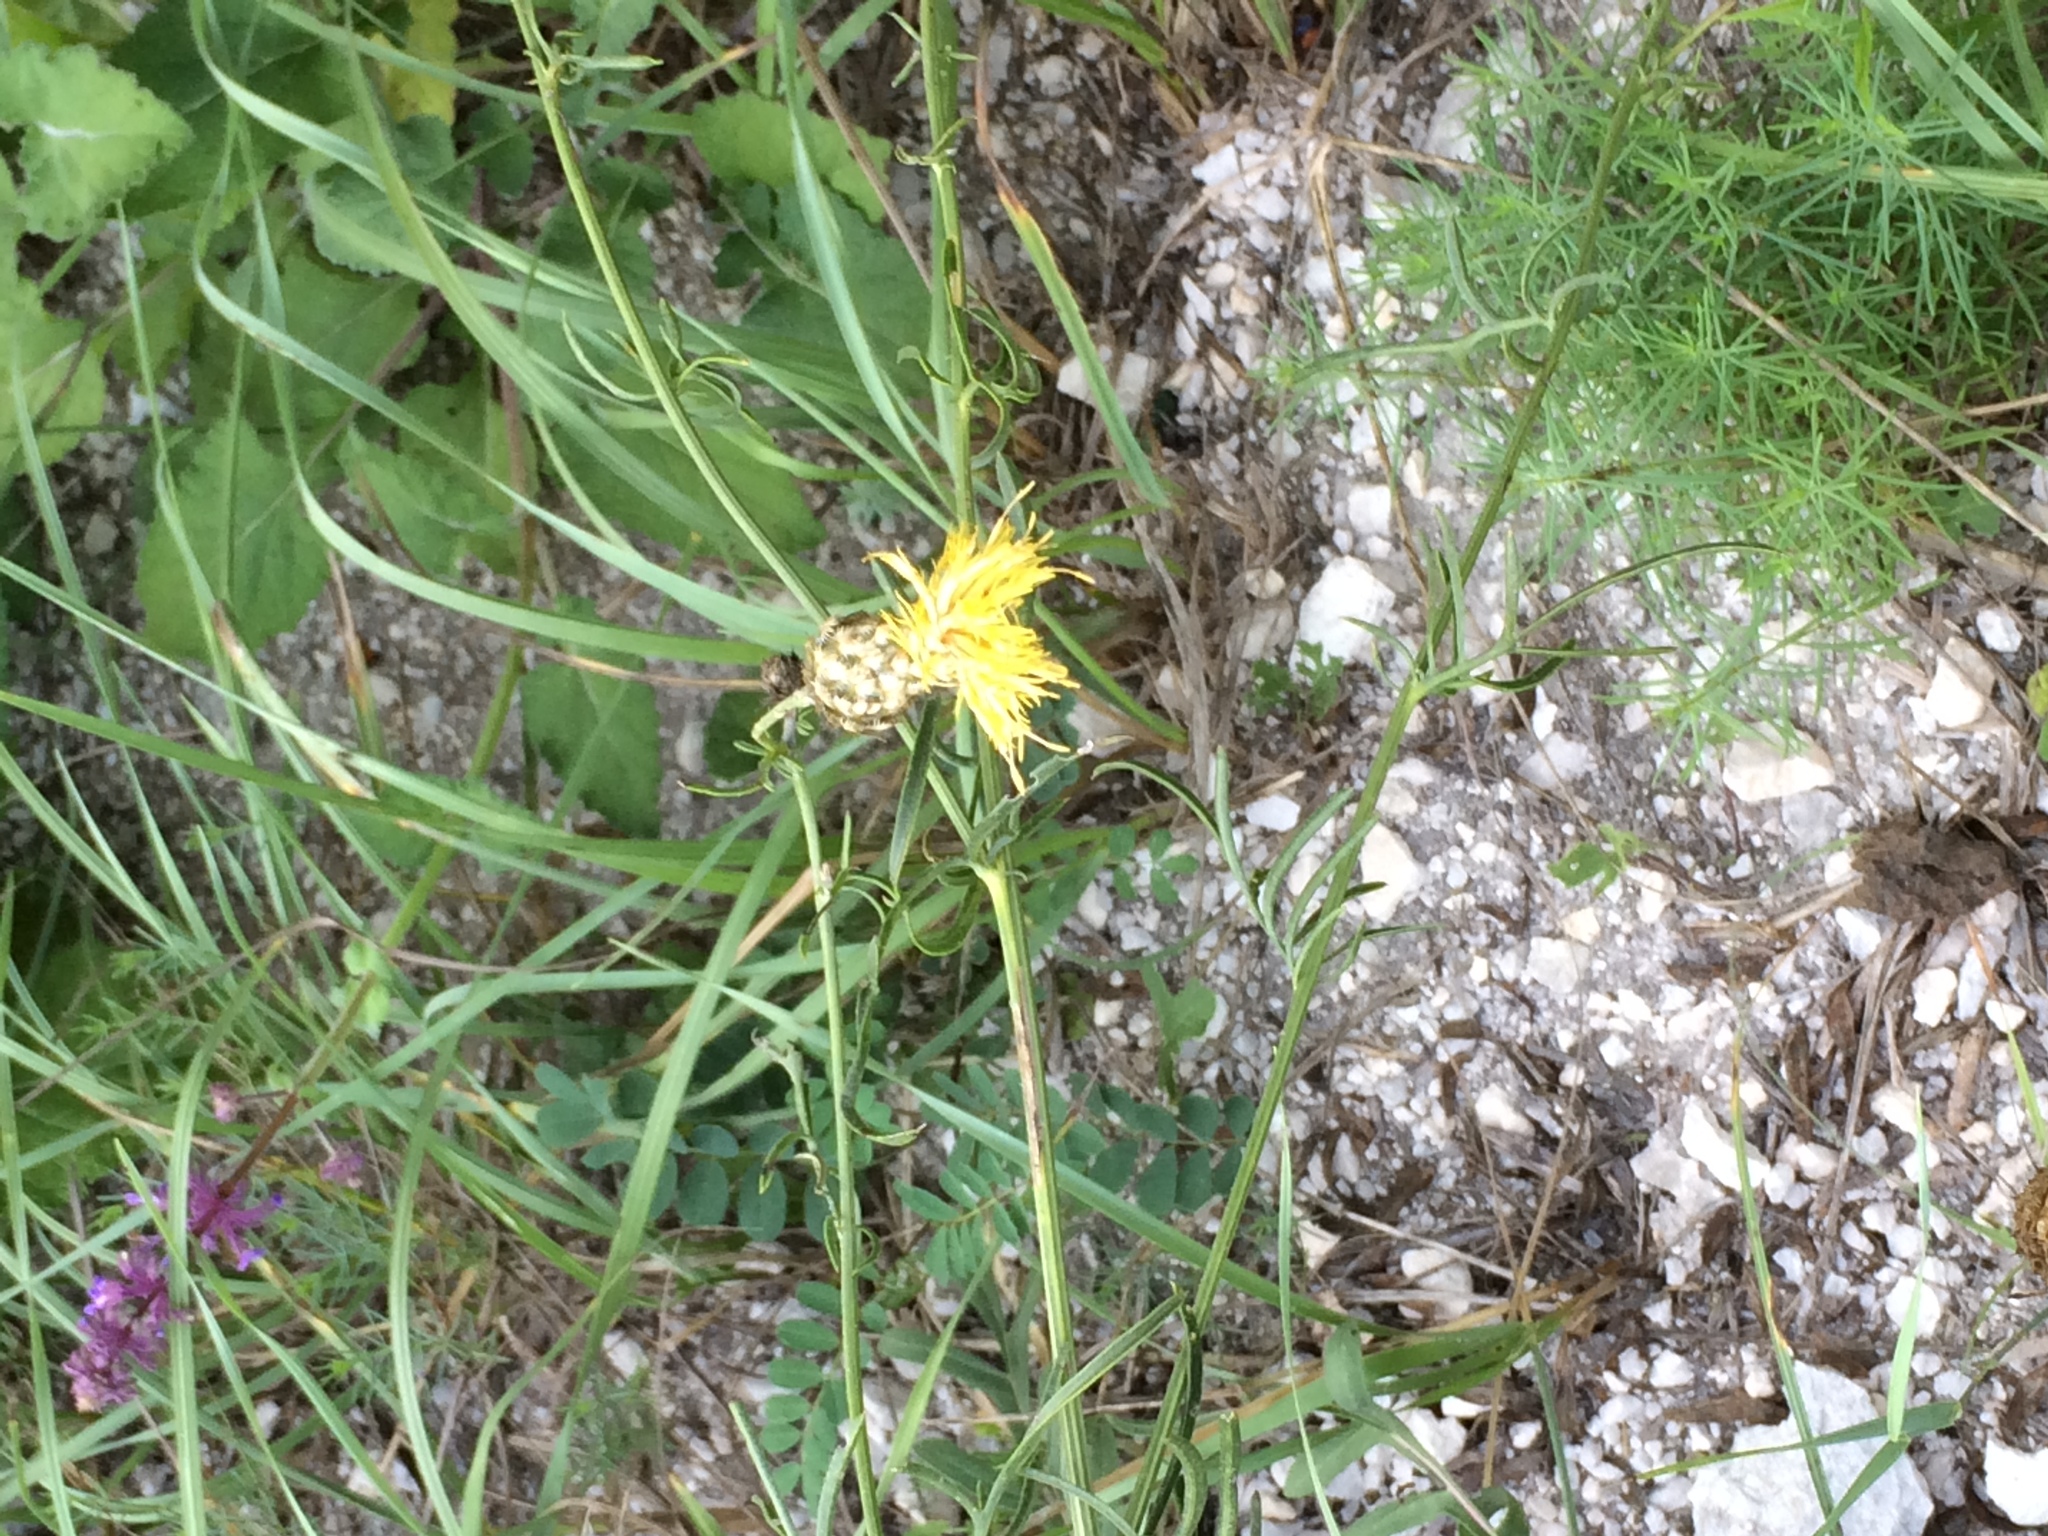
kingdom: Plantae
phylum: Tracheophyta
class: Magnoliopsida
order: Asterales
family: Asteraceae
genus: Centaurea
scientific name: Centaurea orientalis
